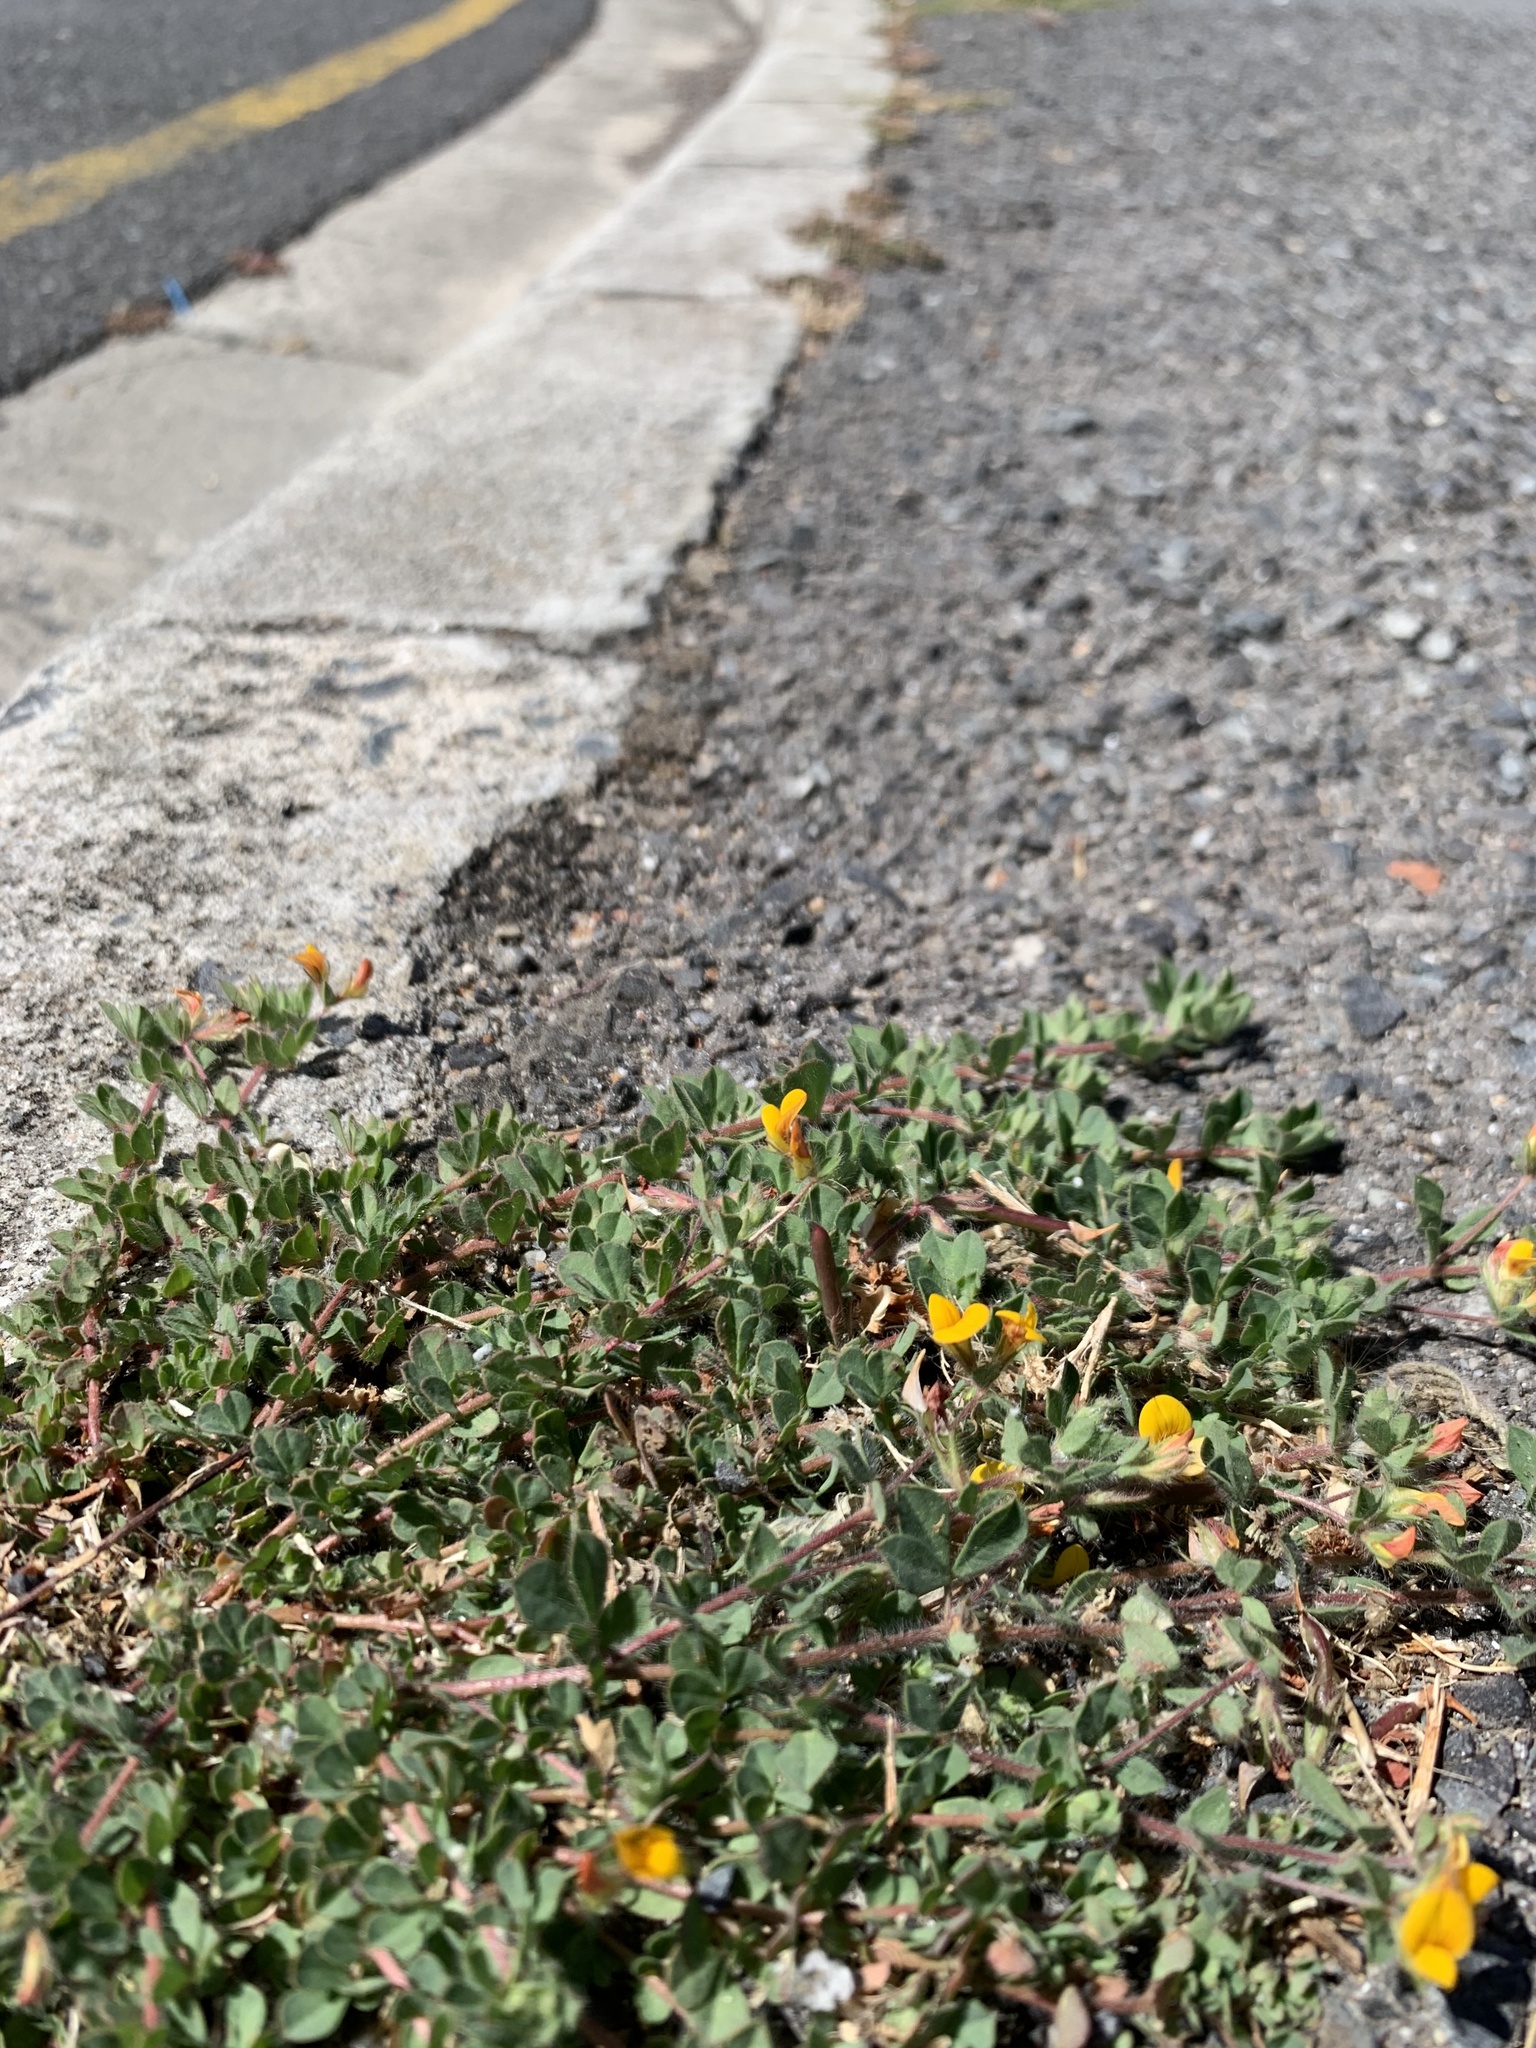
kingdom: Plantae
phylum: Tracheophyta
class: Magnoliopsida
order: Fabales
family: Fabaceae
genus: Lotus
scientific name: Lotus subbiflorus
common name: Hairy bird's-foot trefoil
